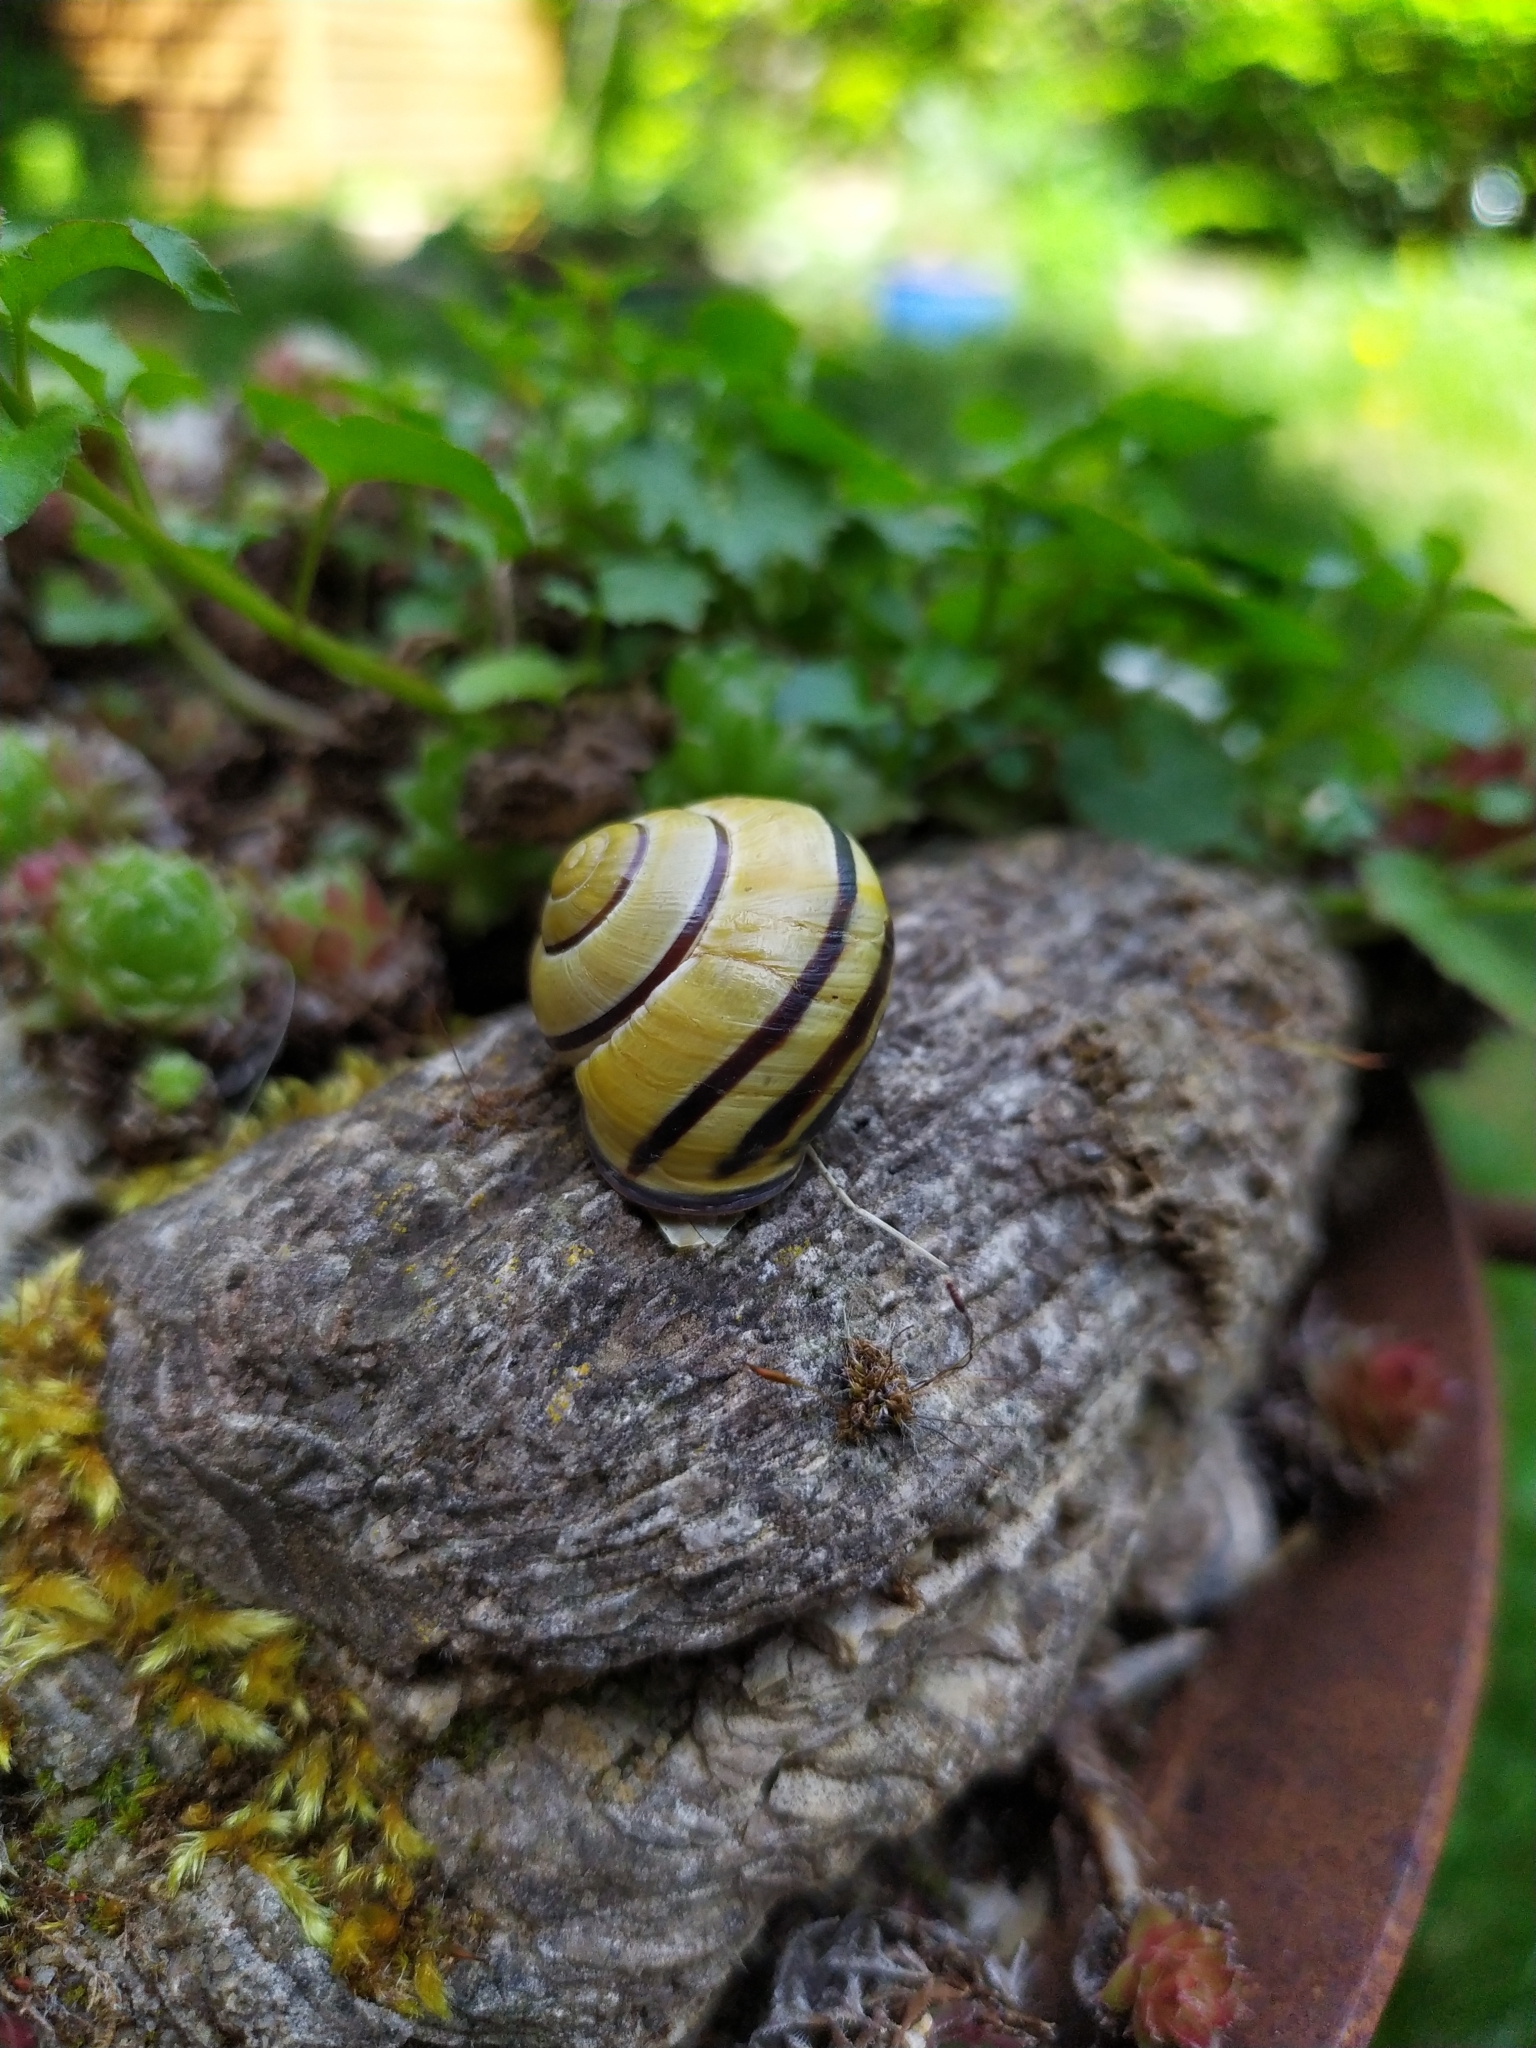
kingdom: Animalia
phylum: Mollusca
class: Gastropoda
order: Stylommatophora
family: Helicidae
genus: Cepaea
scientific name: Cepaea nemoralis
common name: Grovesnail
